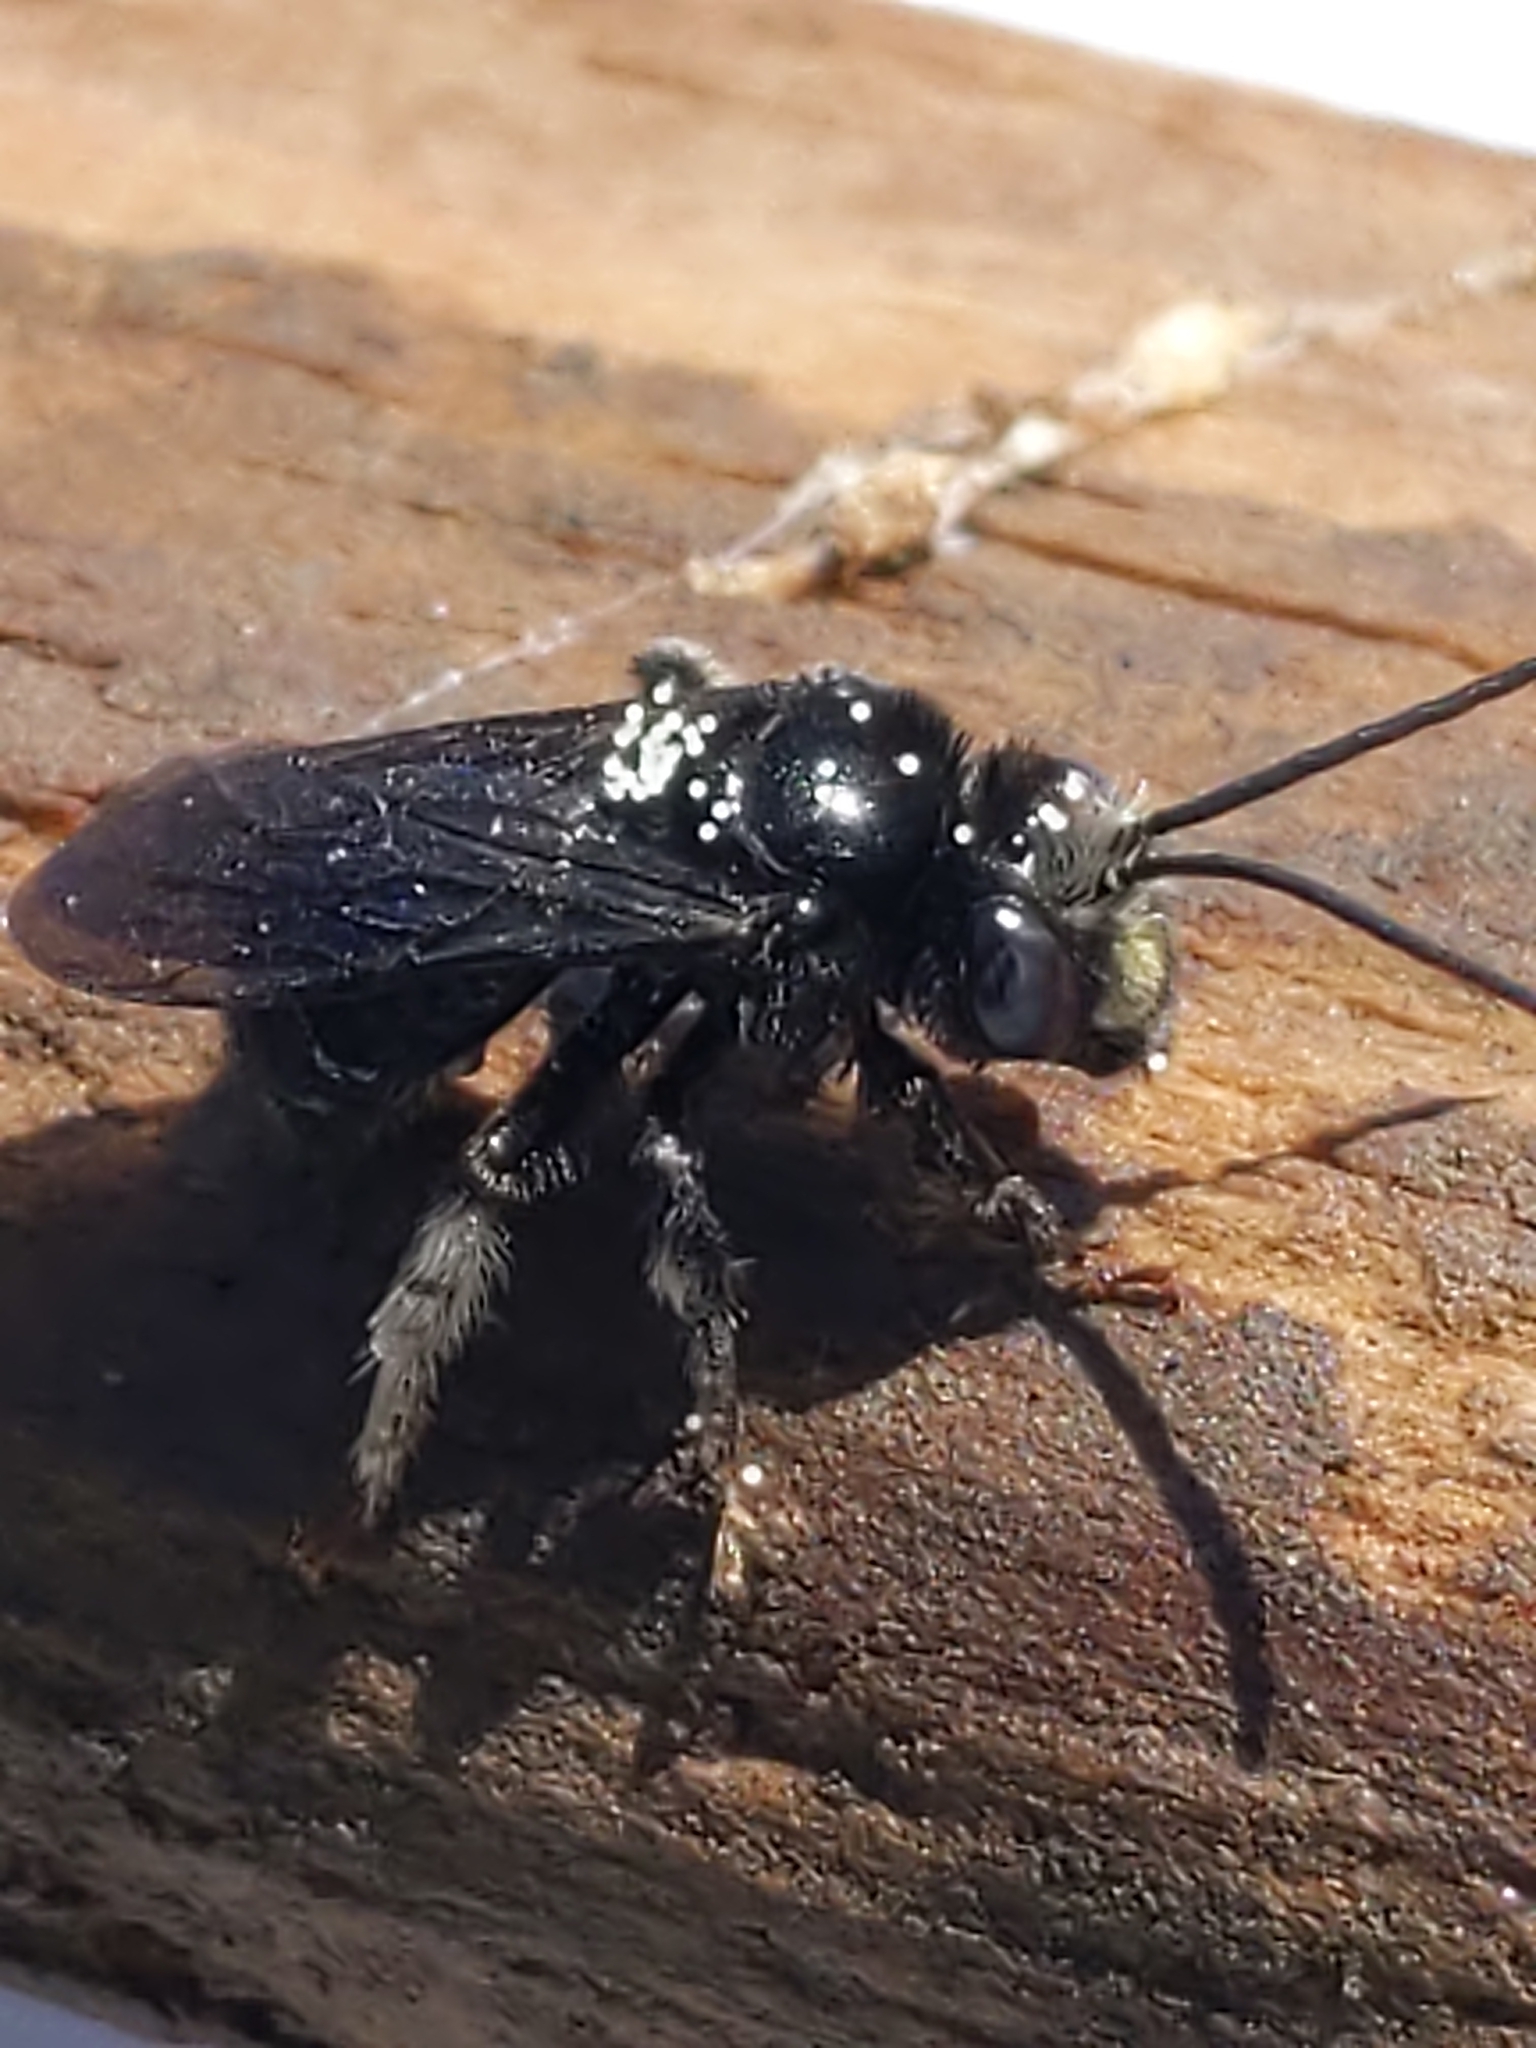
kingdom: Animalia
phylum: Arthropoda
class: Insecta
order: Hymenoptera
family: Apidae
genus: Melissodes
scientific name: Melissodes bimaculatus
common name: Two-spotted long-horned bee
